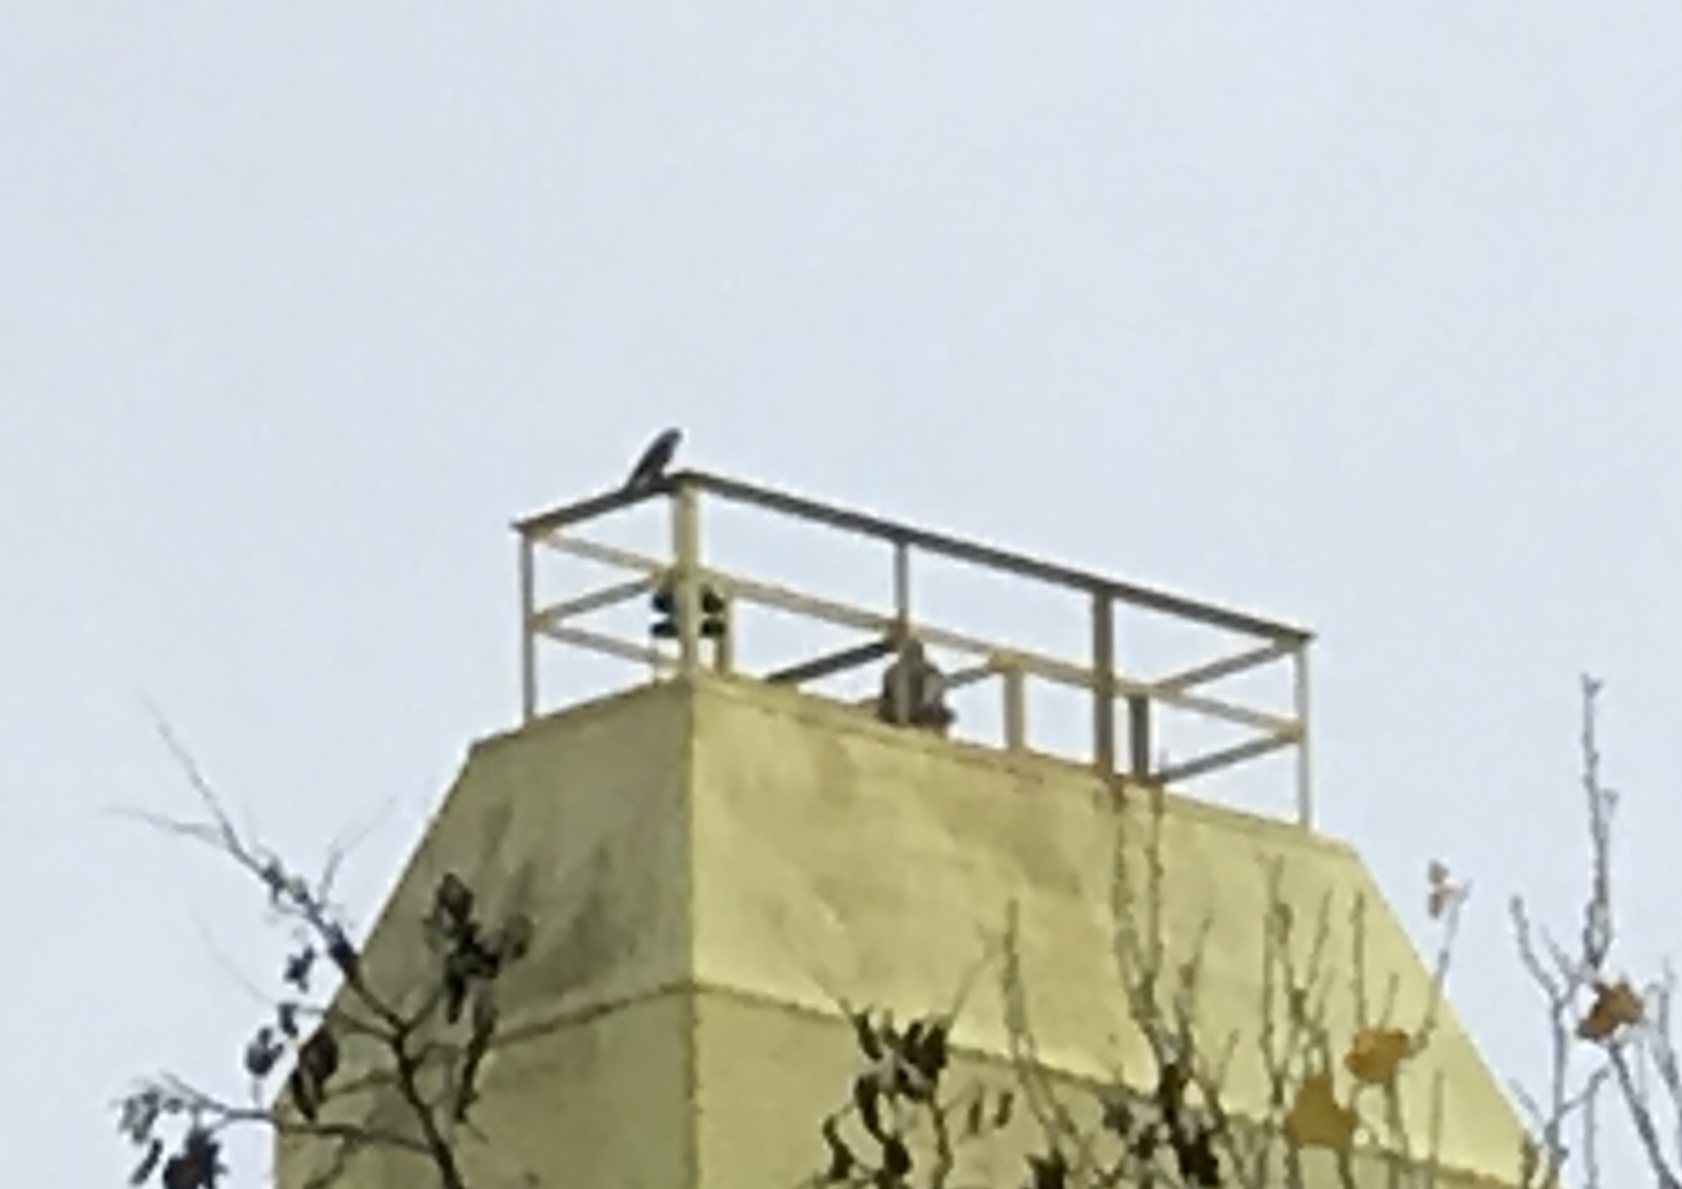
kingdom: Animalia
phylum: Chordata
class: Aves
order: Falconiformes
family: Falconidae
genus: Falco
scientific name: Falco peregrinus
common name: Peregrine falcon
